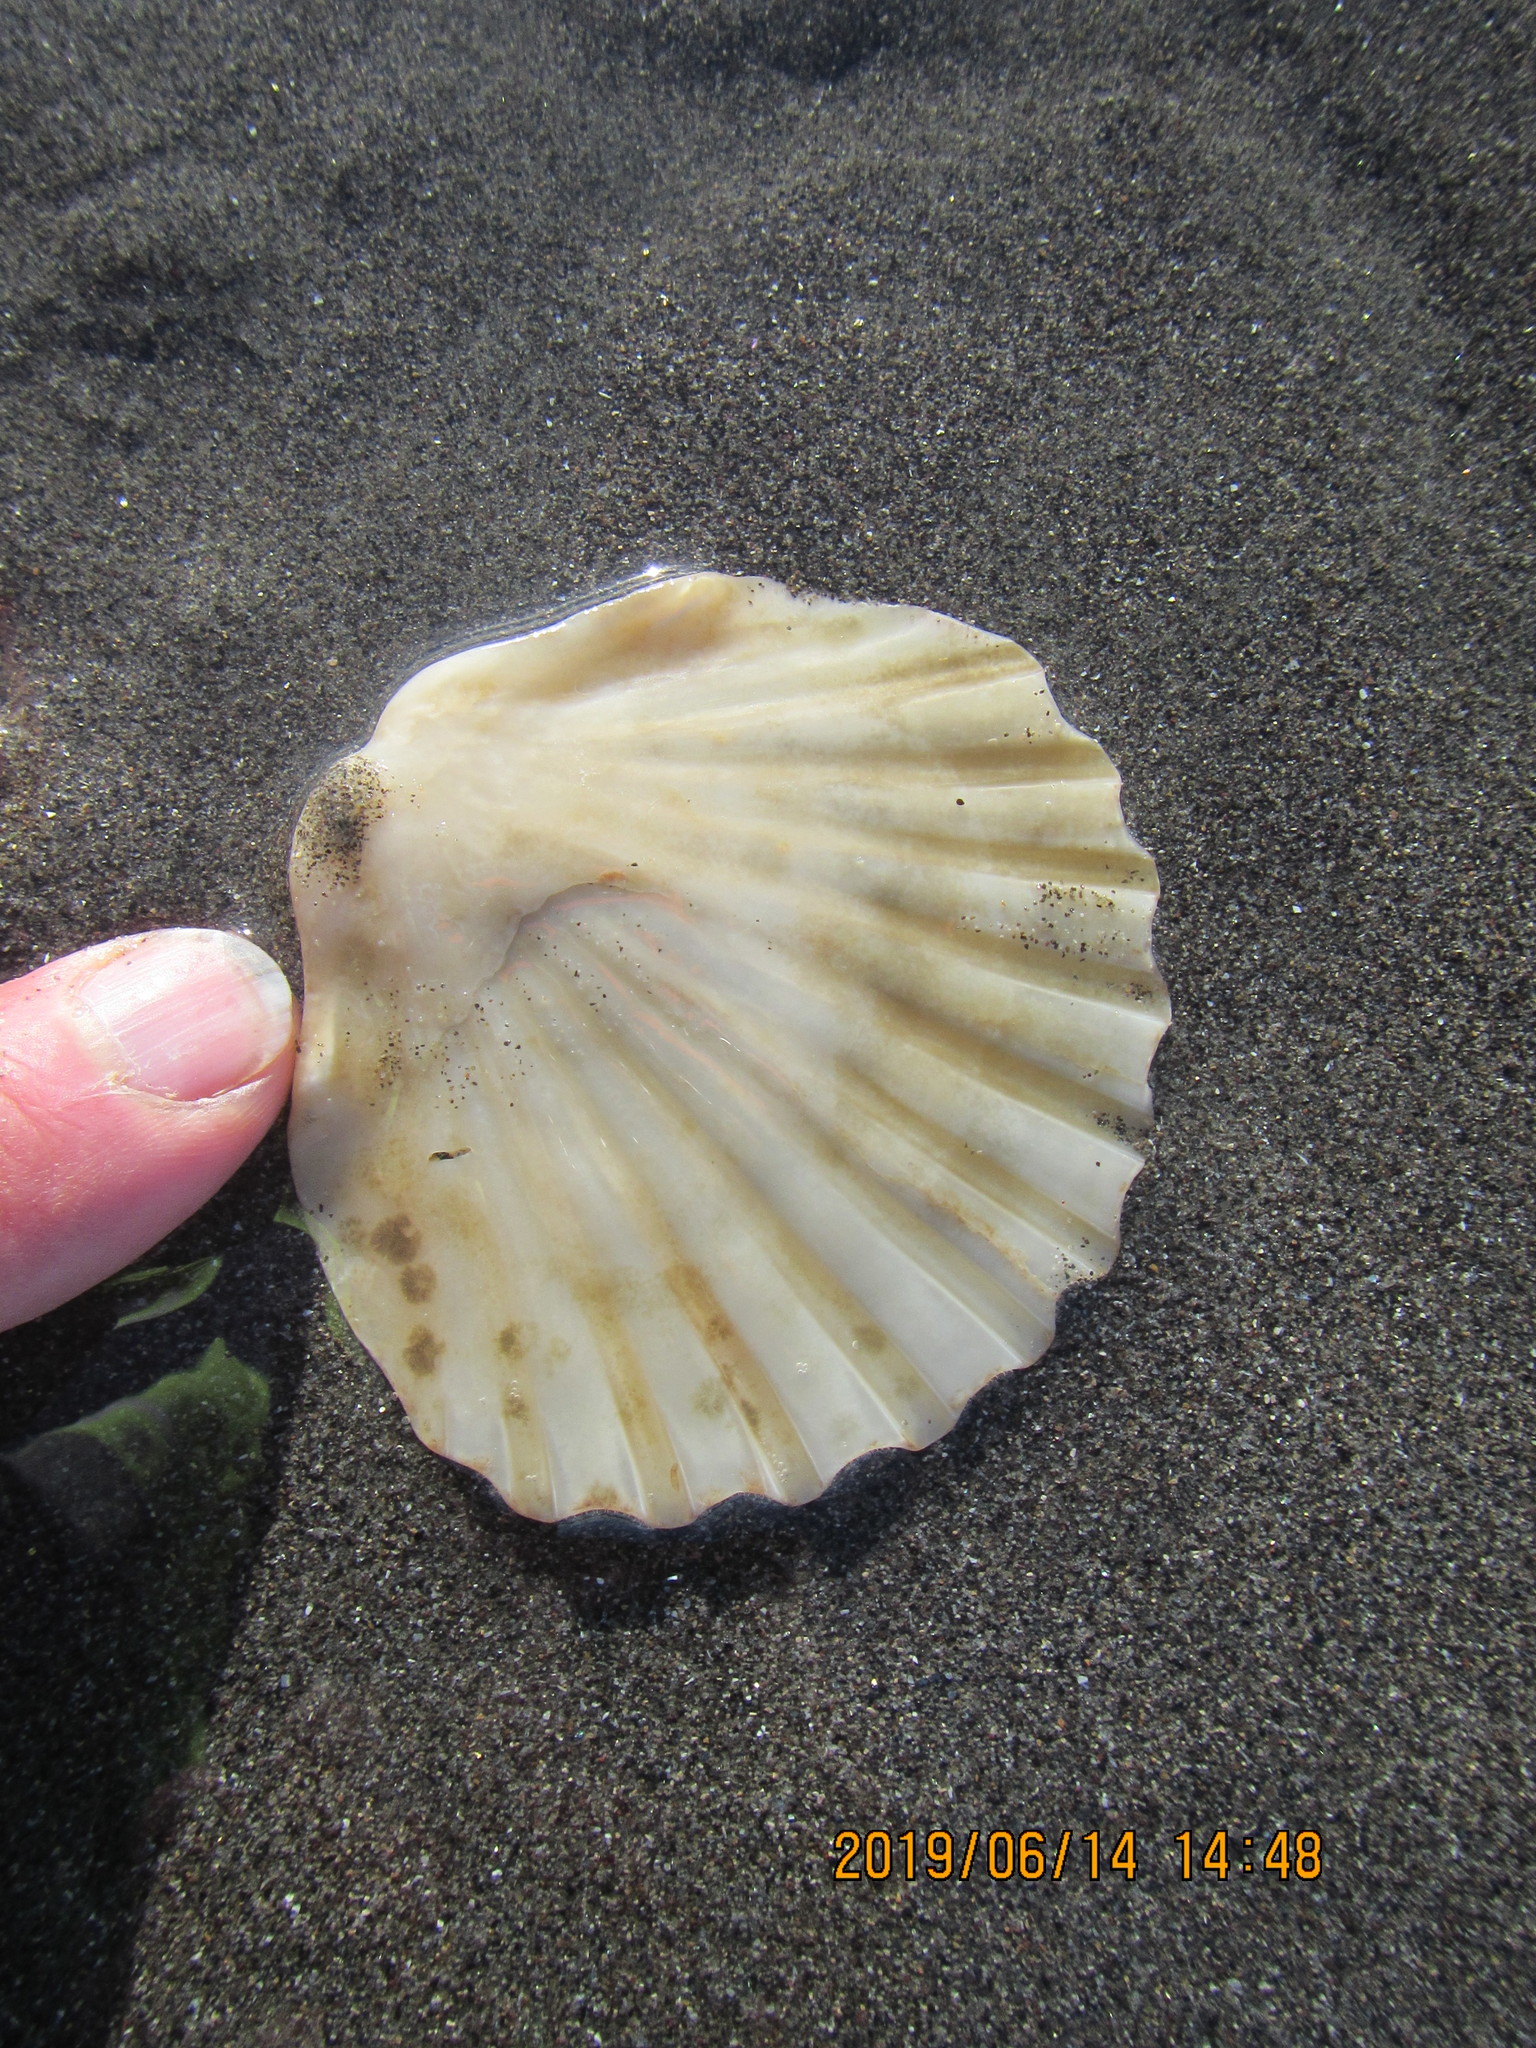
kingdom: Animalia
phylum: Mollusca
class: Bivalvia
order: Pectinida
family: Pectinidae
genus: Pecten
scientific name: Pecten novaezelandiae
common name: New zealand scallop
